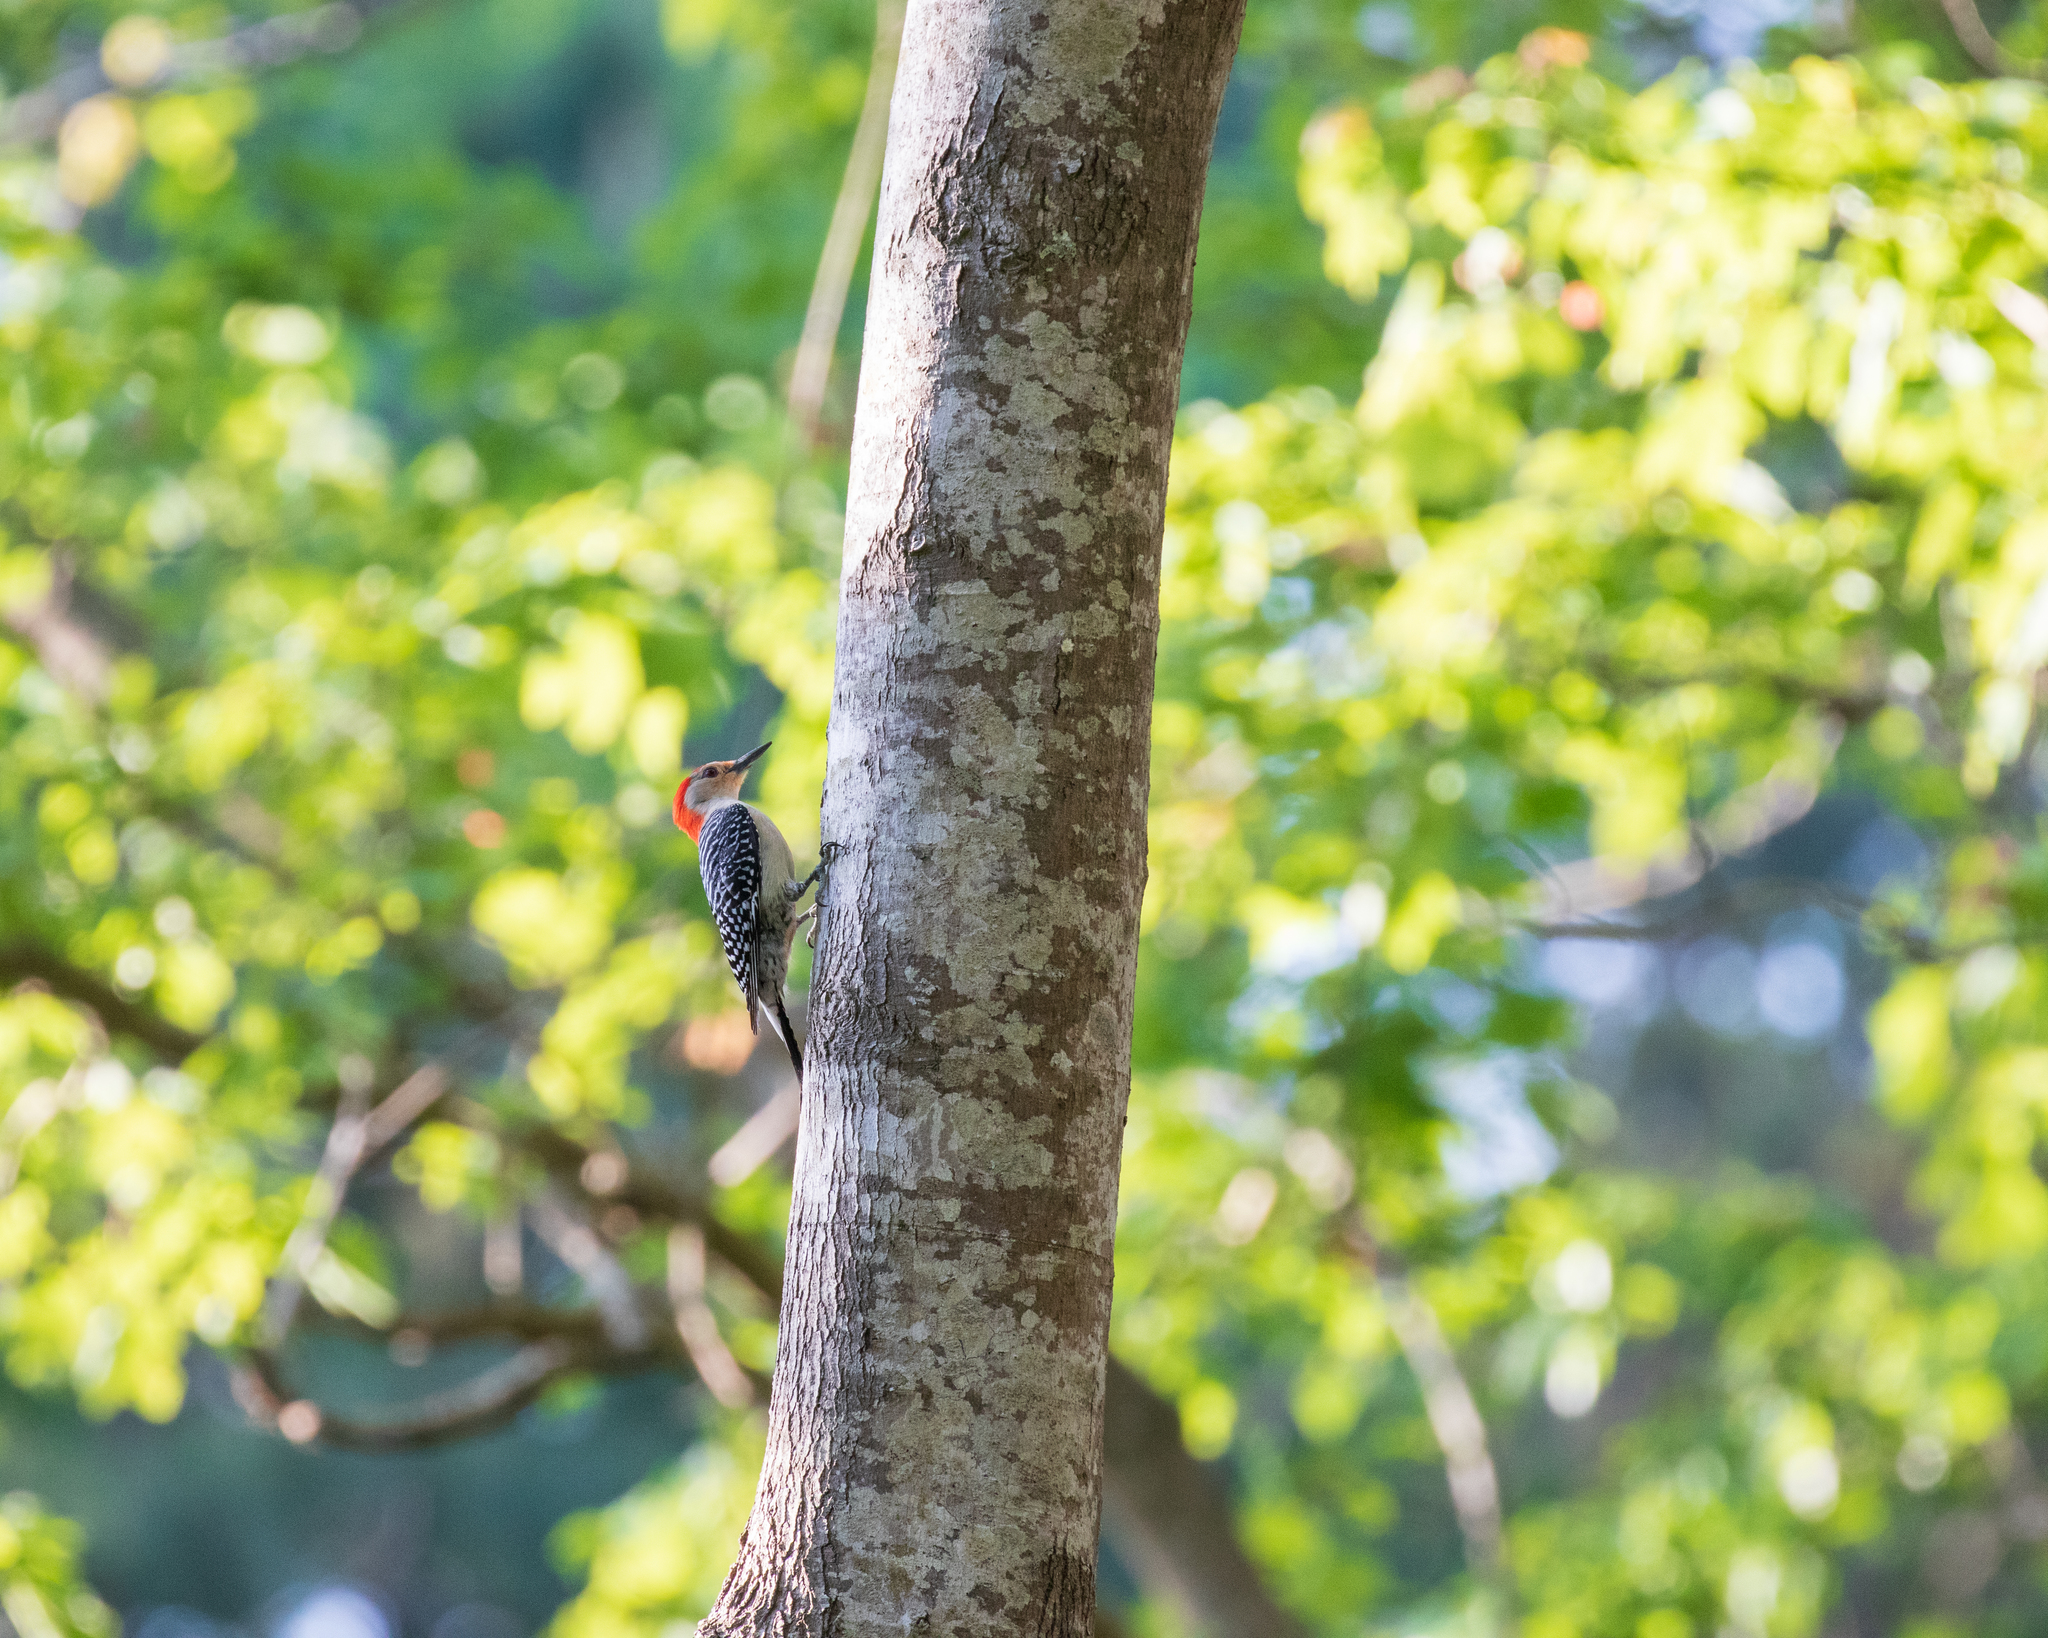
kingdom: Animalia
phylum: Chordata
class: Aves
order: Piciformes
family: Picidae
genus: Melanerpes
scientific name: Melanerpes carolinus
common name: Red-bellied woodpecker
